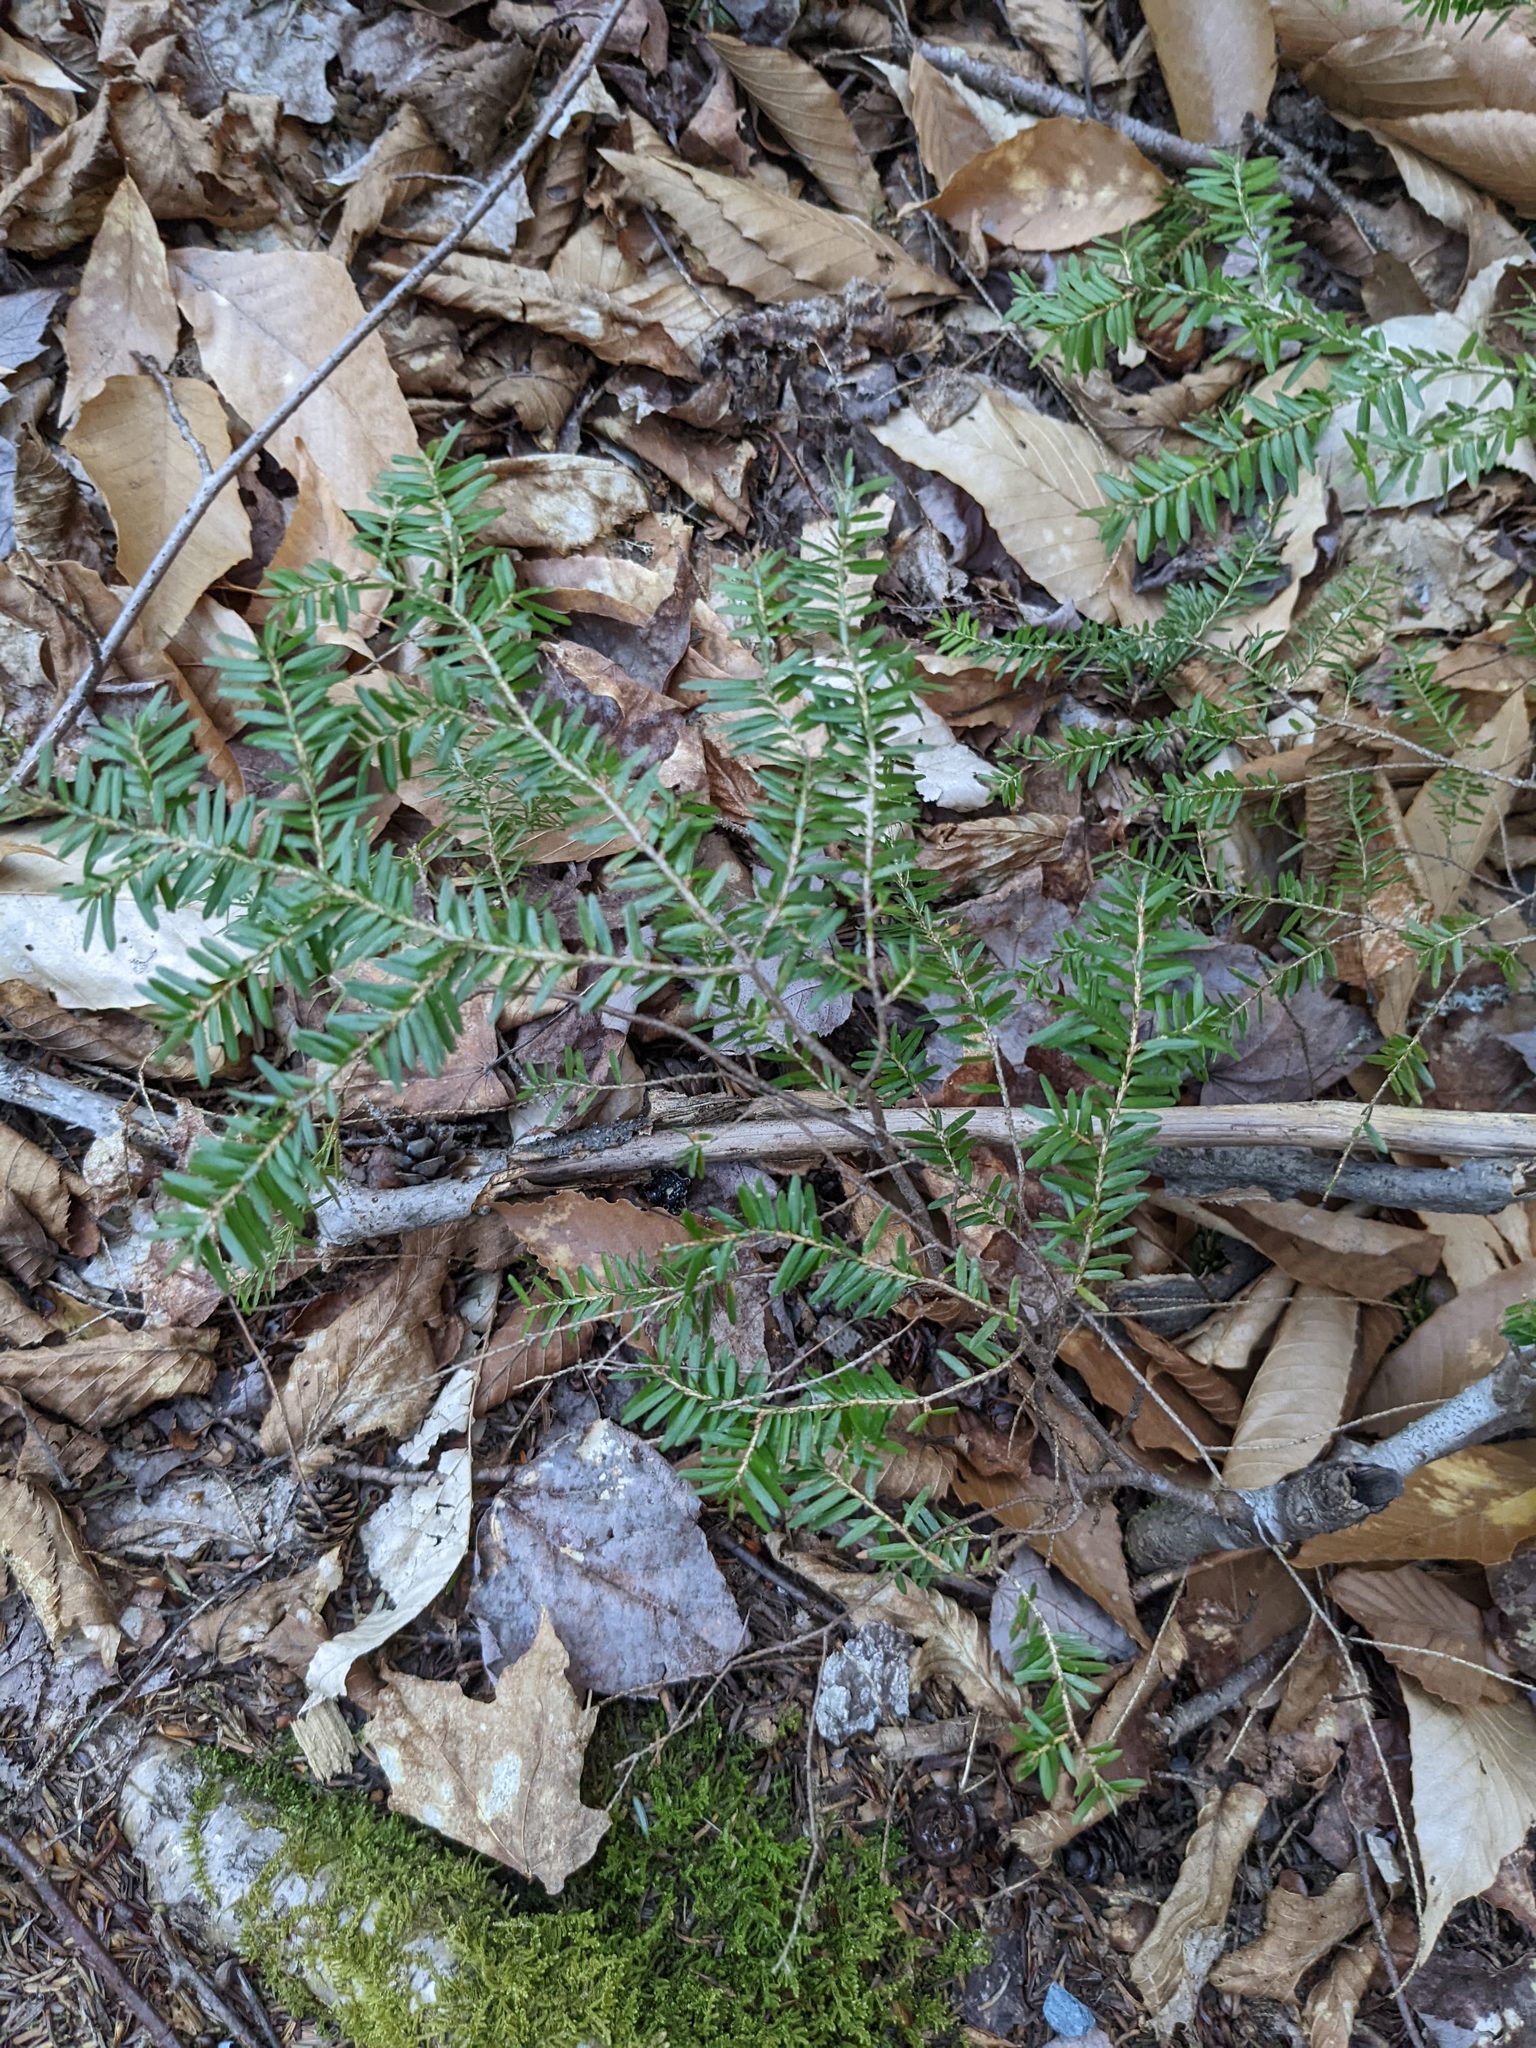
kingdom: Plantae
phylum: Tracheophyta
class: Pinopsida
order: Pinales
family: Pinaceae
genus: Tsuga
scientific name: Tsuga canadensis
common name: Eastern hemlock
